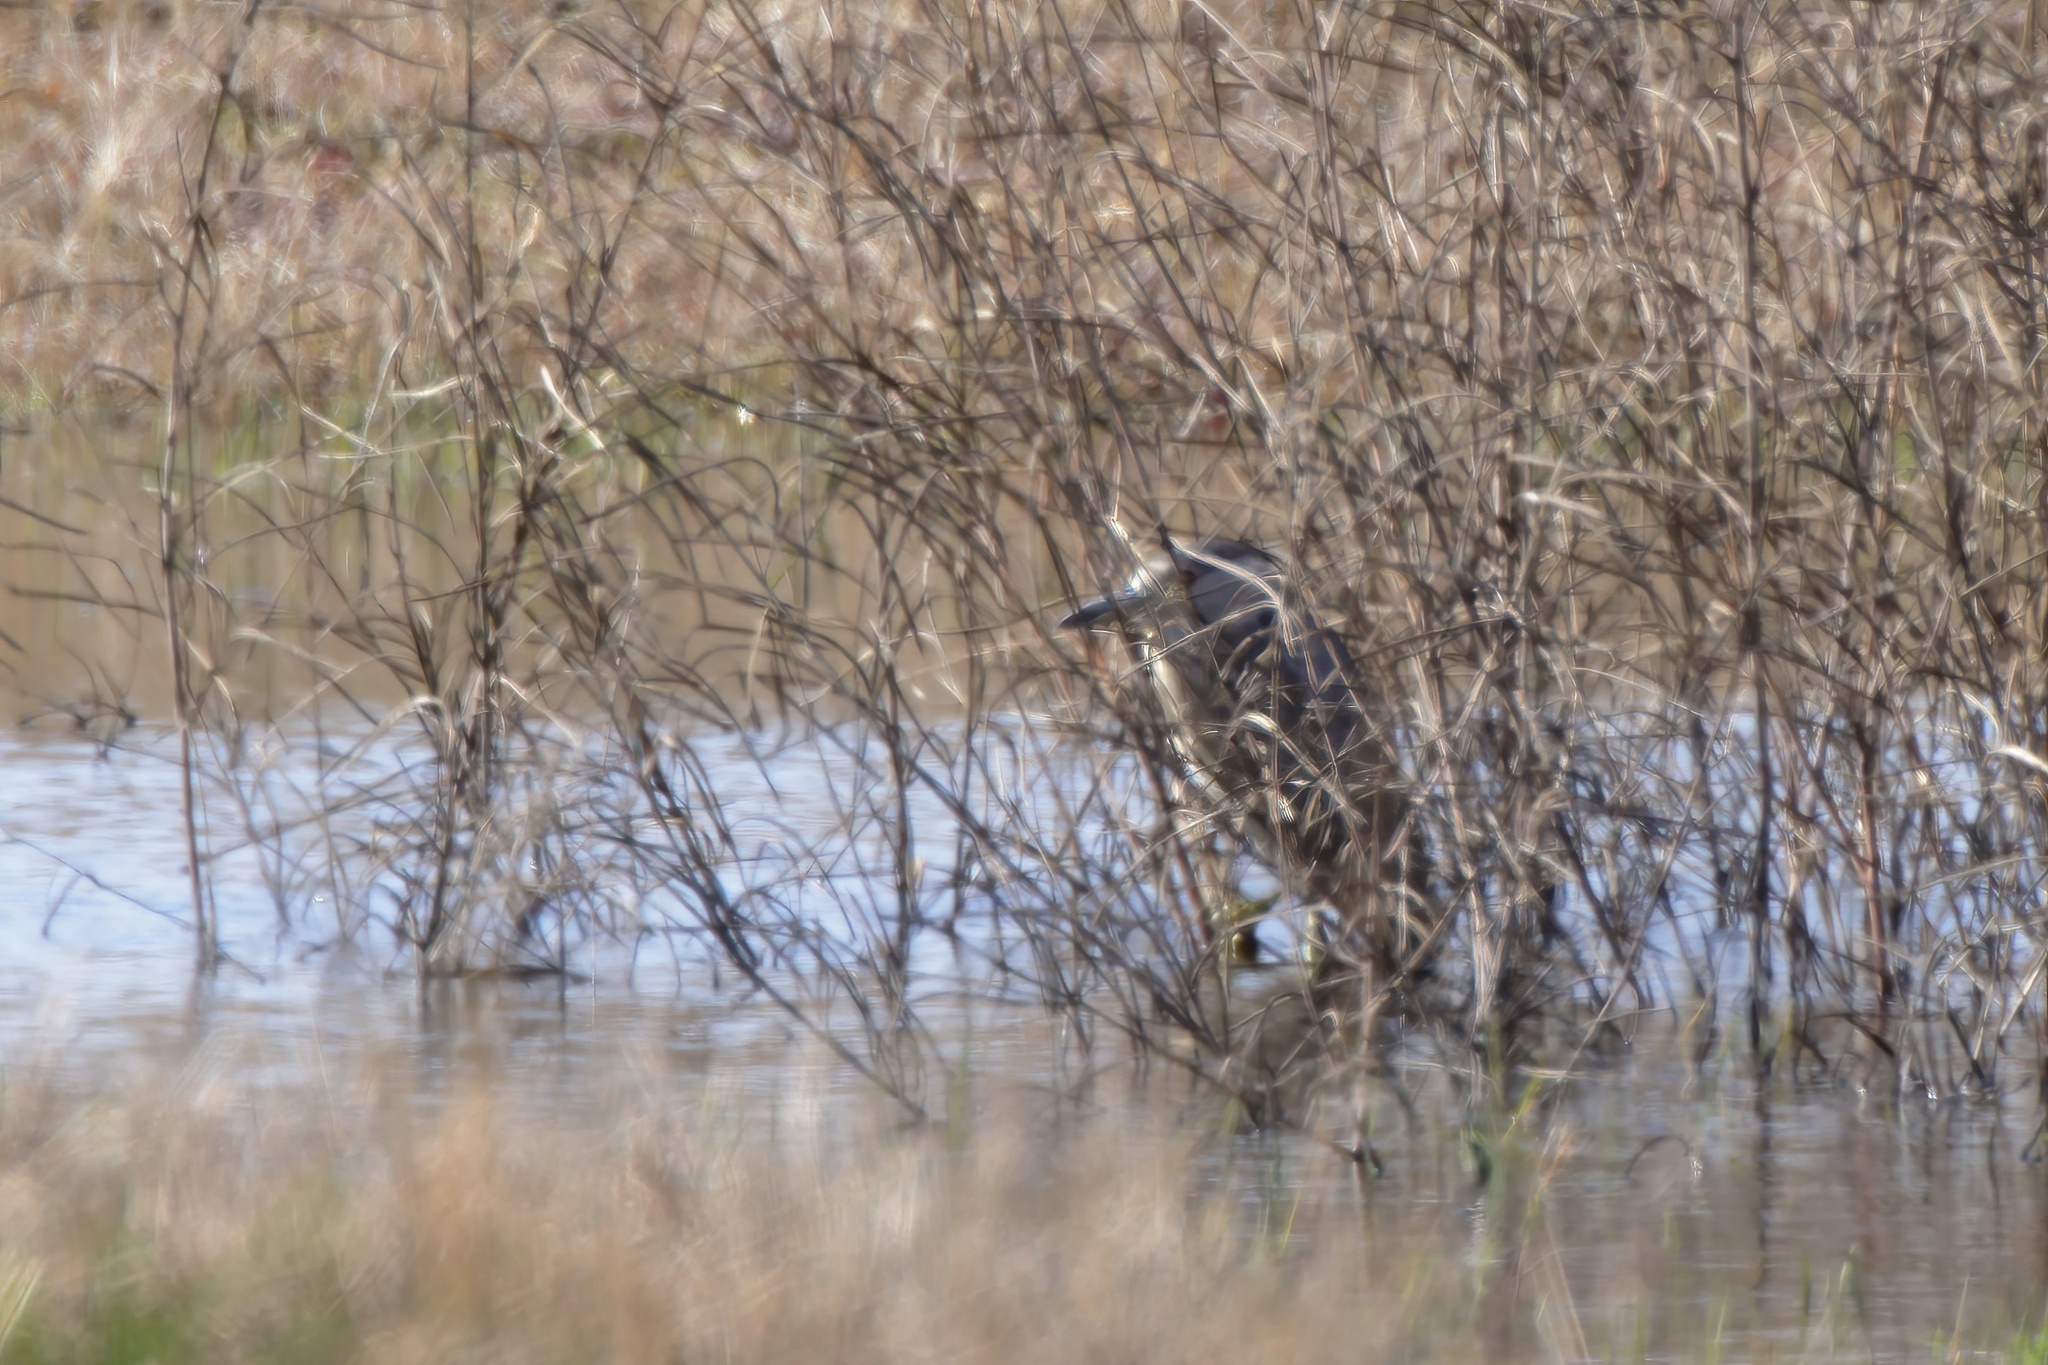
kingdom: Animalia
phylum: Chordata
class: Aves
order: Pelecaniformes
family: Ardeidae
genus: Nycticorax
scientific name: Nycticorax nycticorax
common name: Black-crowned night heron
